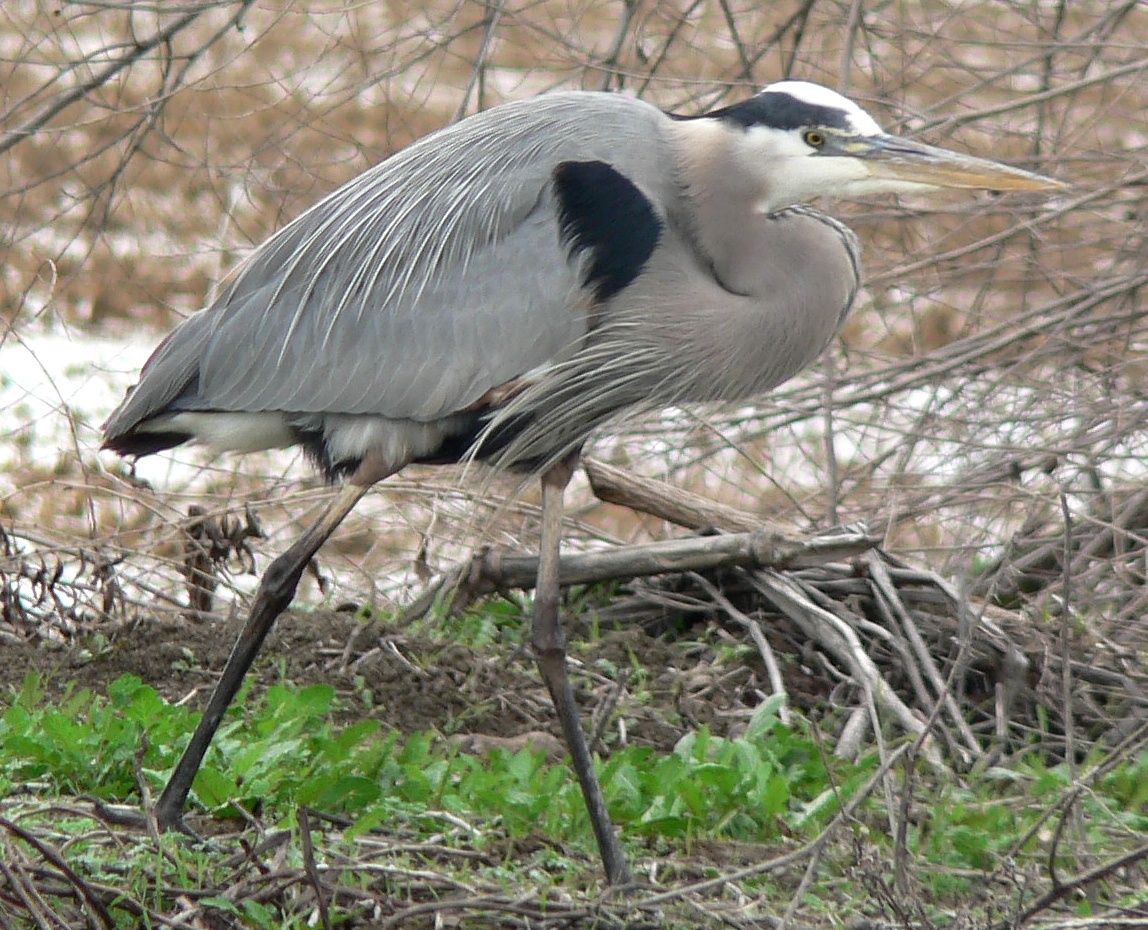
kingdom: Animalia
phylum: Chordata
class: Aves
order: Pelecaniformes
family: Ardeidae
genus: Ardea
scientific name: Ardea herodias
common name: Great blue heron
